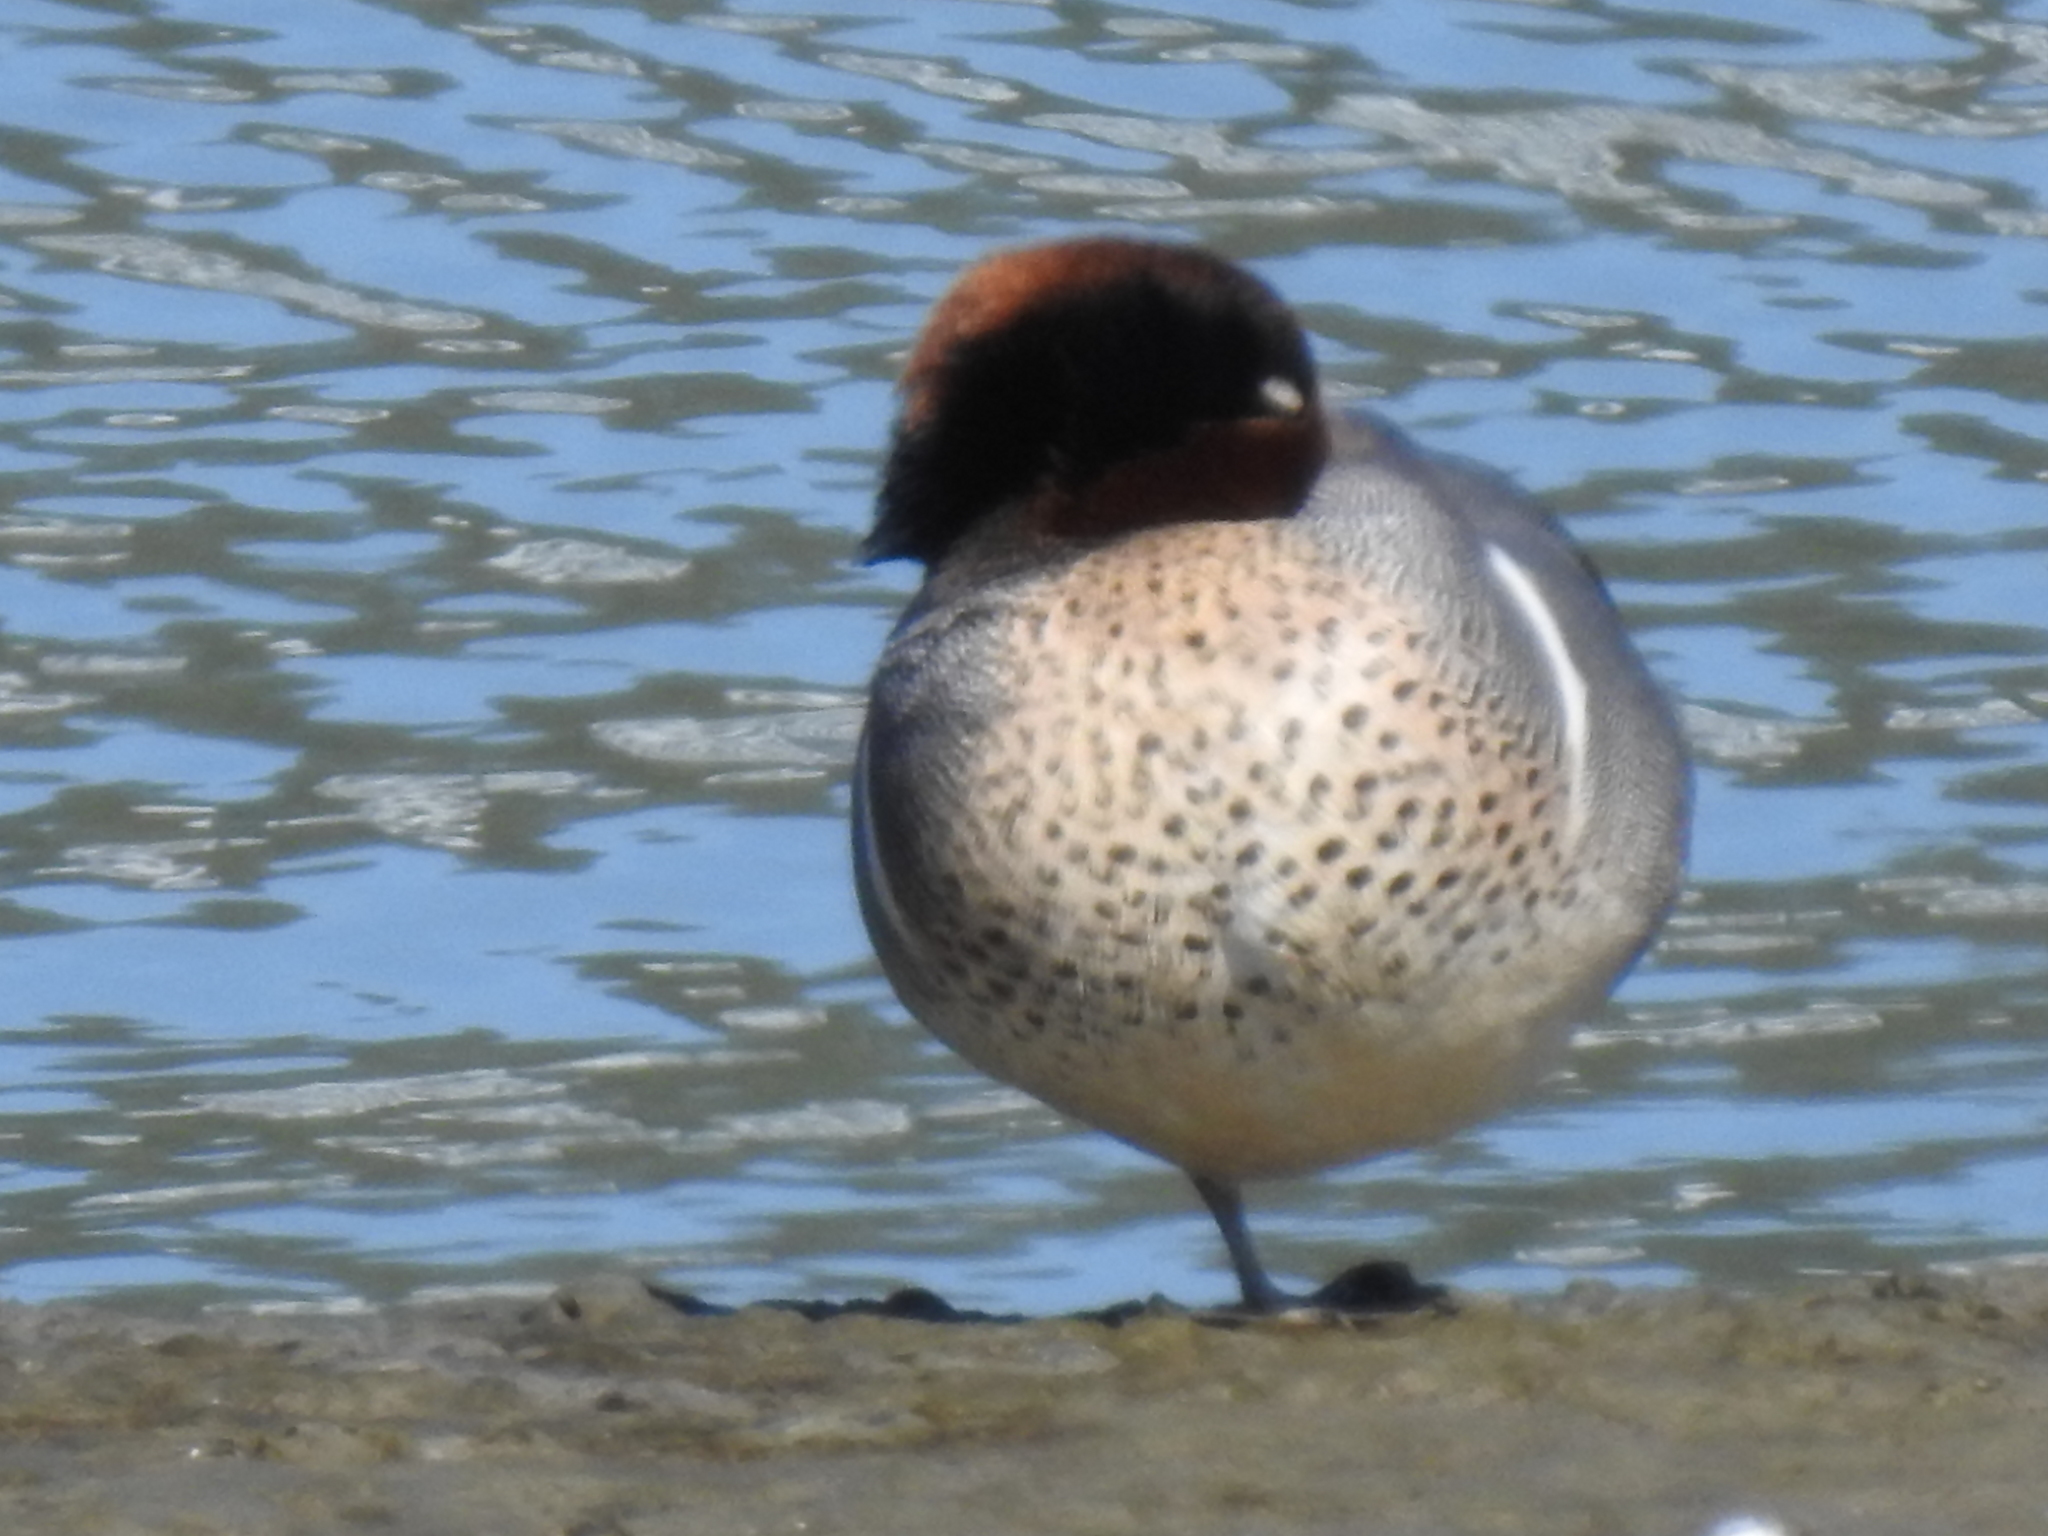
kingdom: Animalia
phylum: Chordata
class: Aves
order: Anseriformes
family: Anatidae
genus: Anas
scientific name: Anas crecca
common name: Eurasian teal
